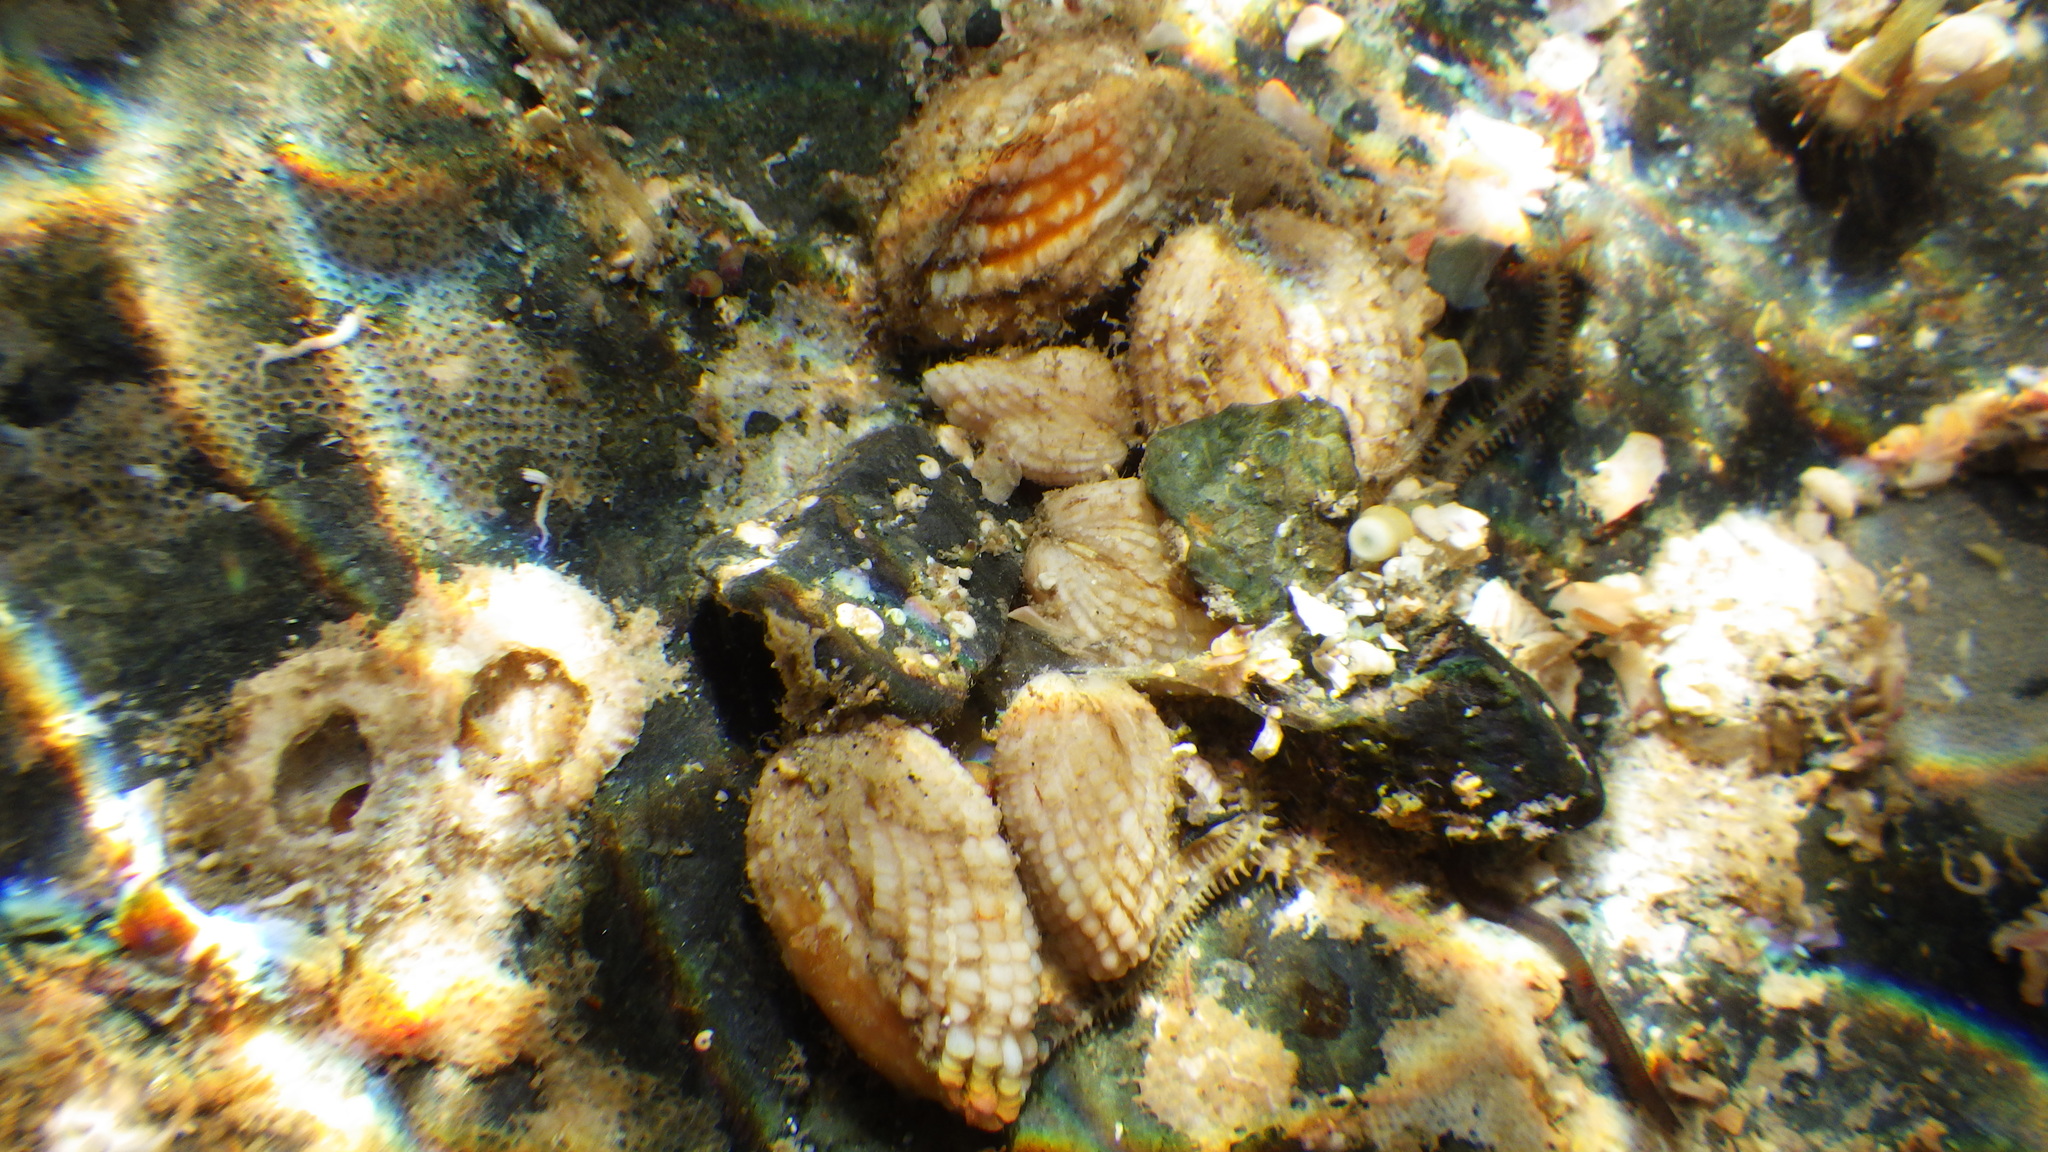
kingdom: Animalia
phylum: Mollusca
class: Bivalvia
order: Carditida
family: Carditidae
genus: Powellina
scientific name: Powellina brookesi
